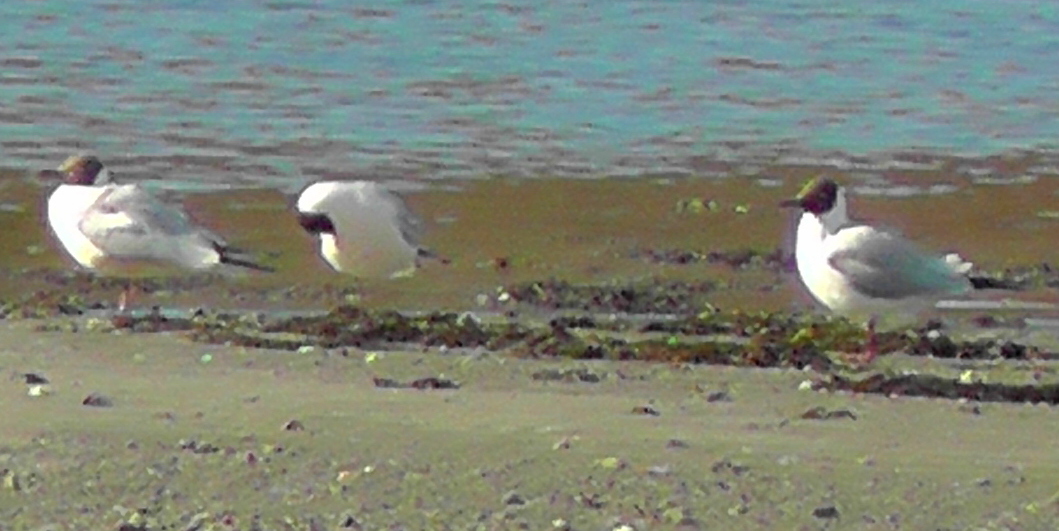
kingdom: Animalia
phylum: Chordata
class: Aves
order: Charadriiformes
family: Laridae
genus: Chroicocephalus
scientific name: Chroicocephalus ridibundus
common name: Black-headed gull
